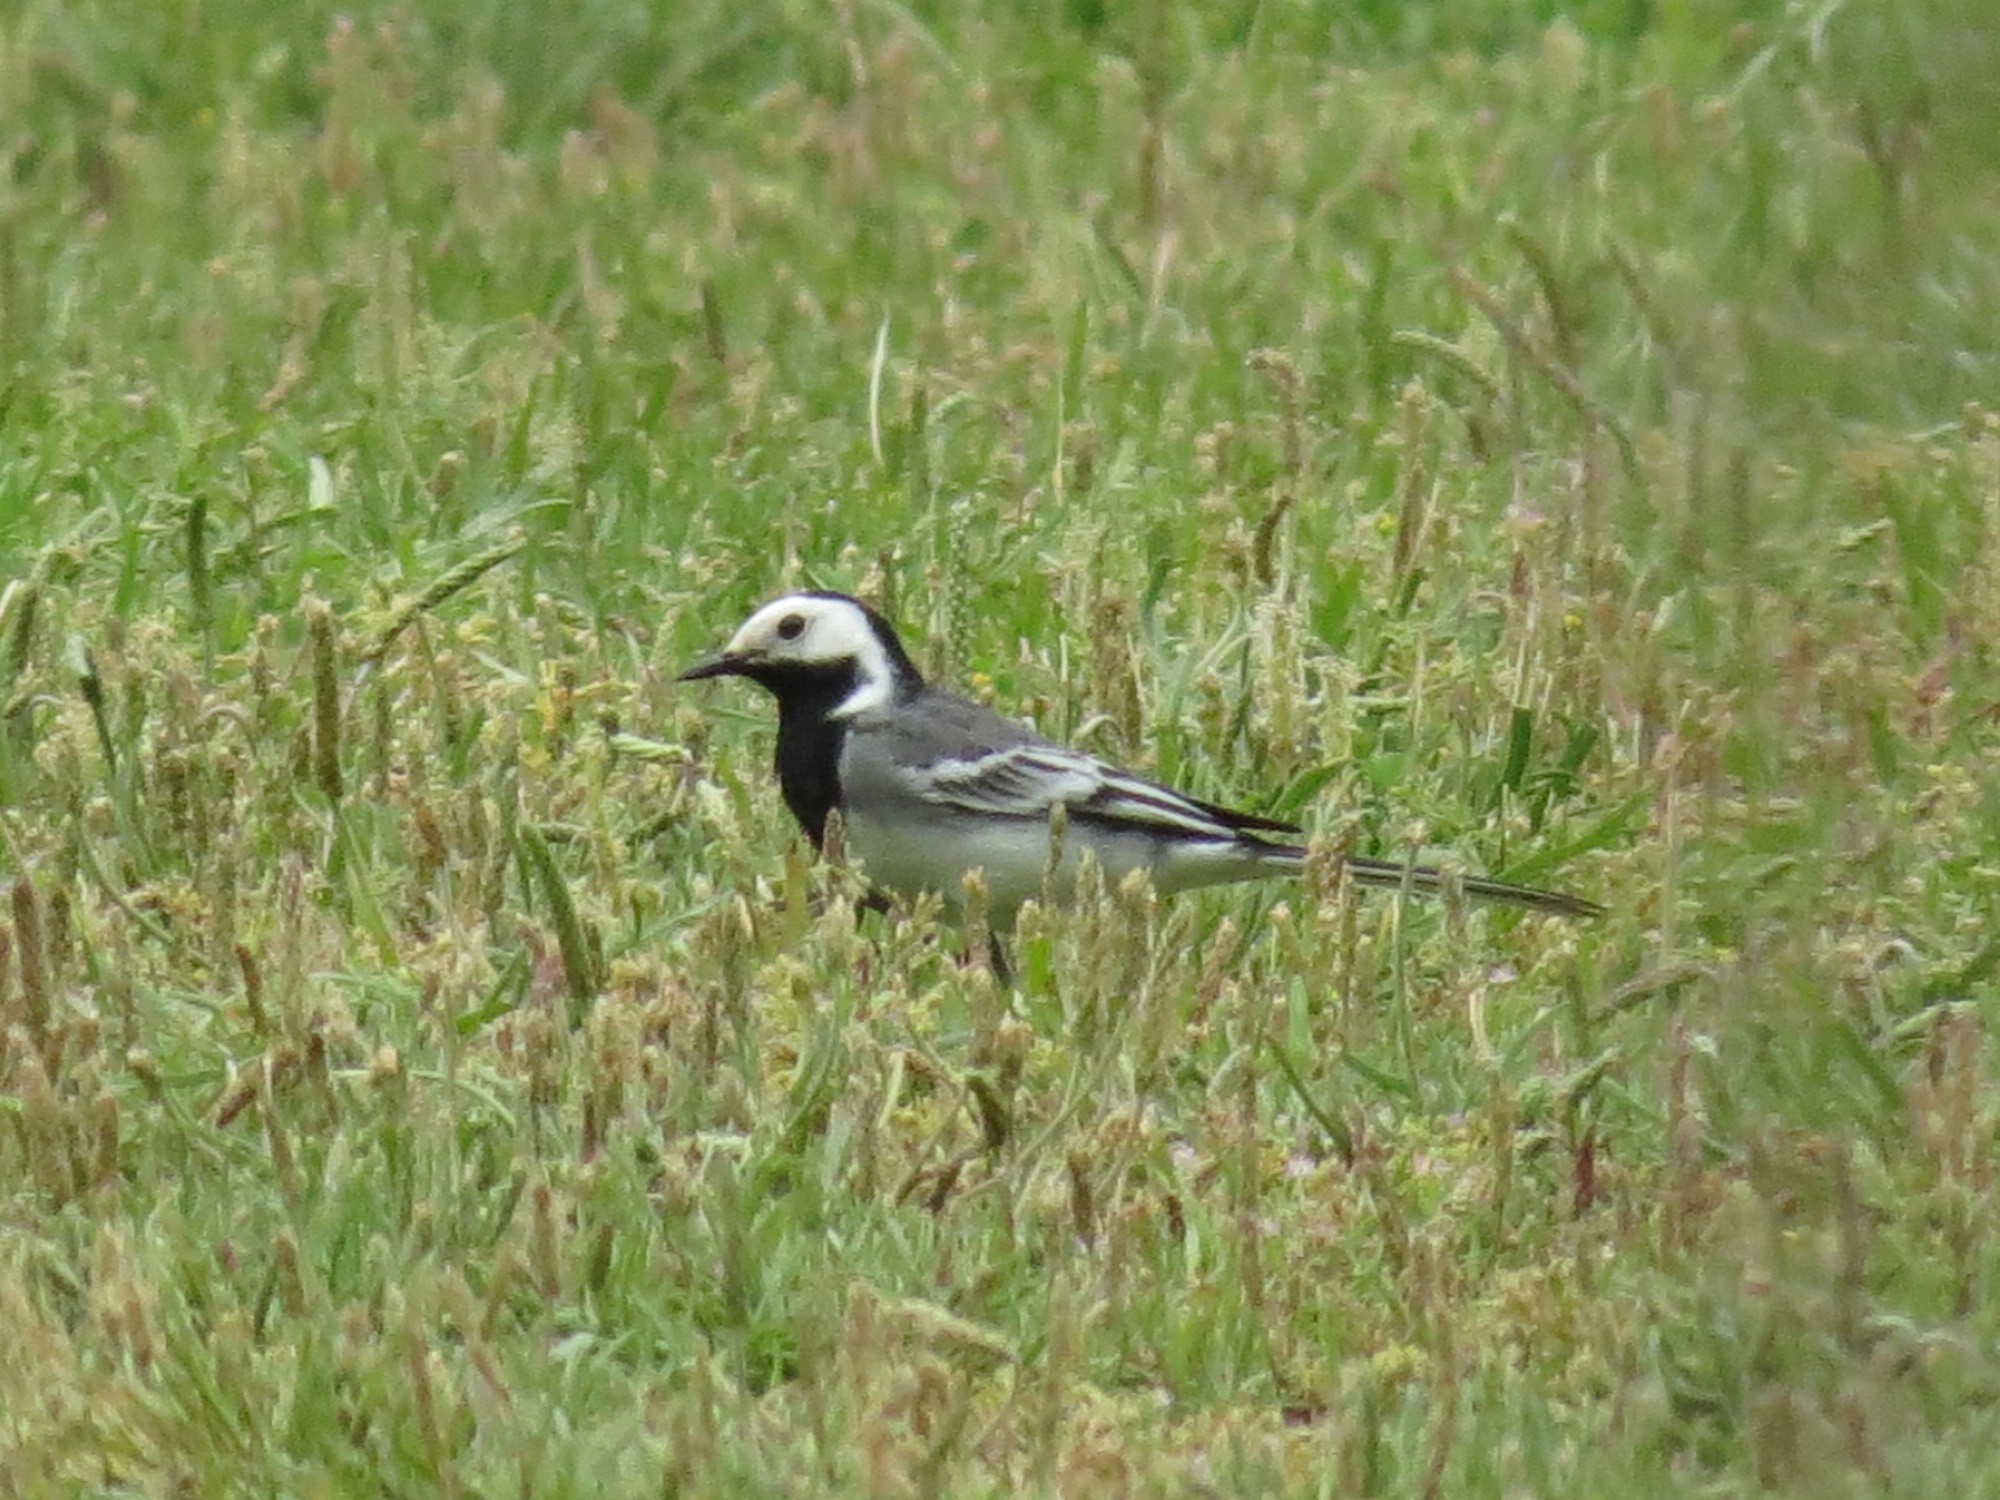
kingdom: Animalia
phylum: Chordata
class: Aves
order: Passeriformes
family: Motacillidae
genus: Motacilla
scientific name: Motacilla alba
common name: White wagtail
